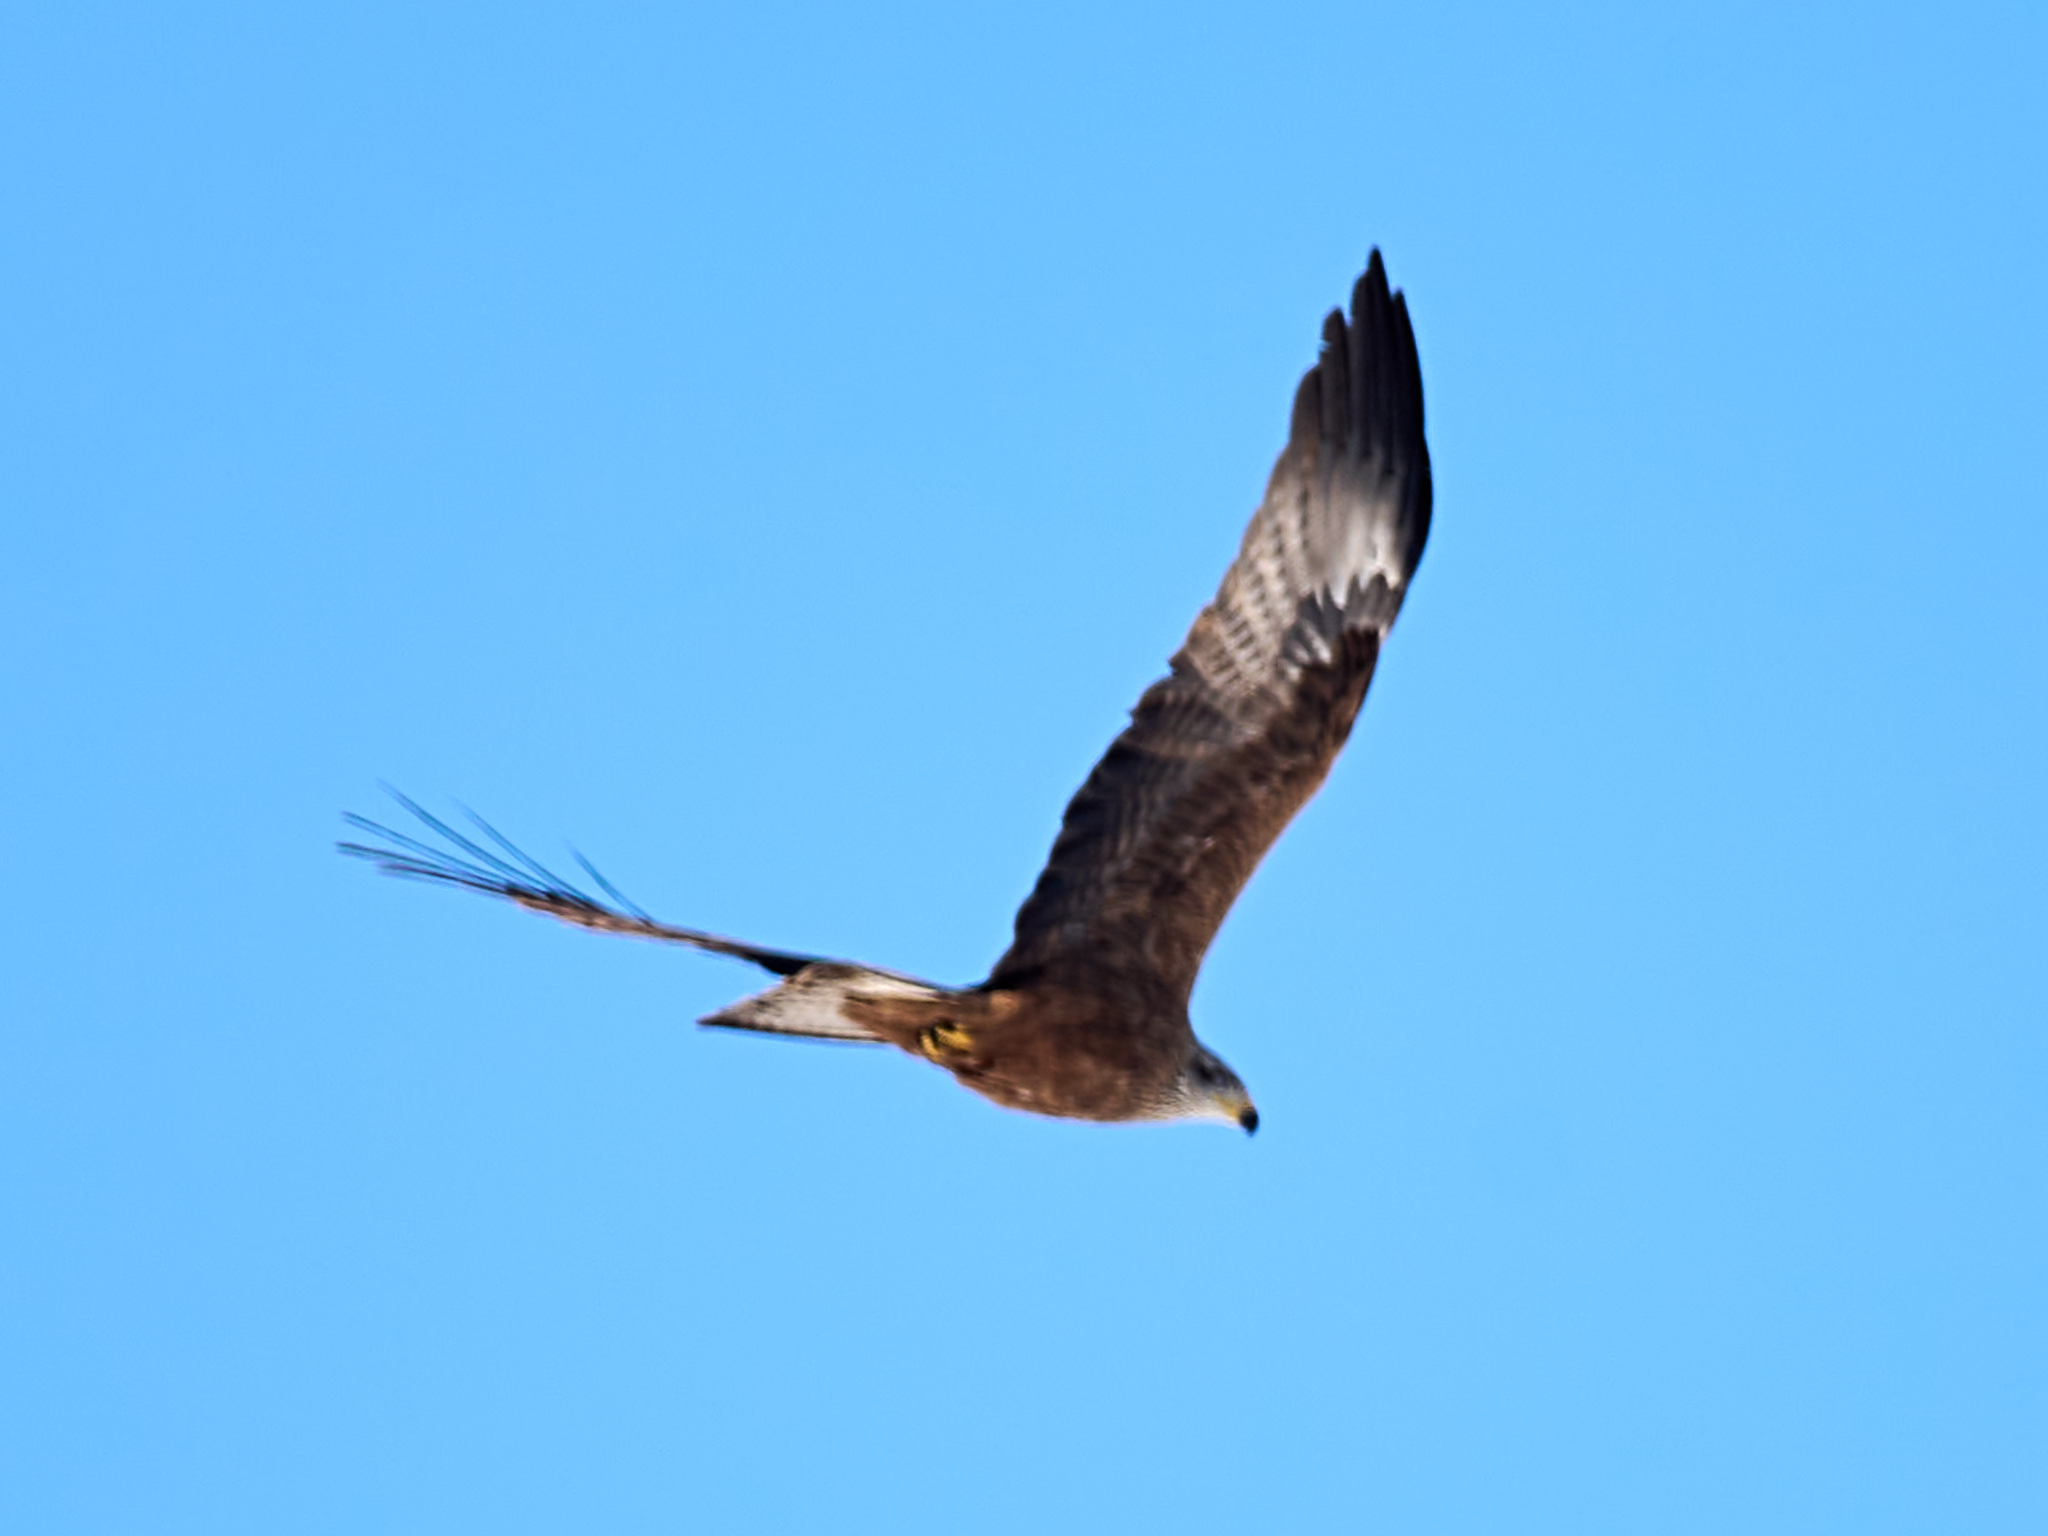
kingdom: Animalia
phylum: Chordata
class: Aves
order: Accipitriformes
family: Accipitridae
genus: Milvus
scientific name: Milvus migrans
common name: Black kite
